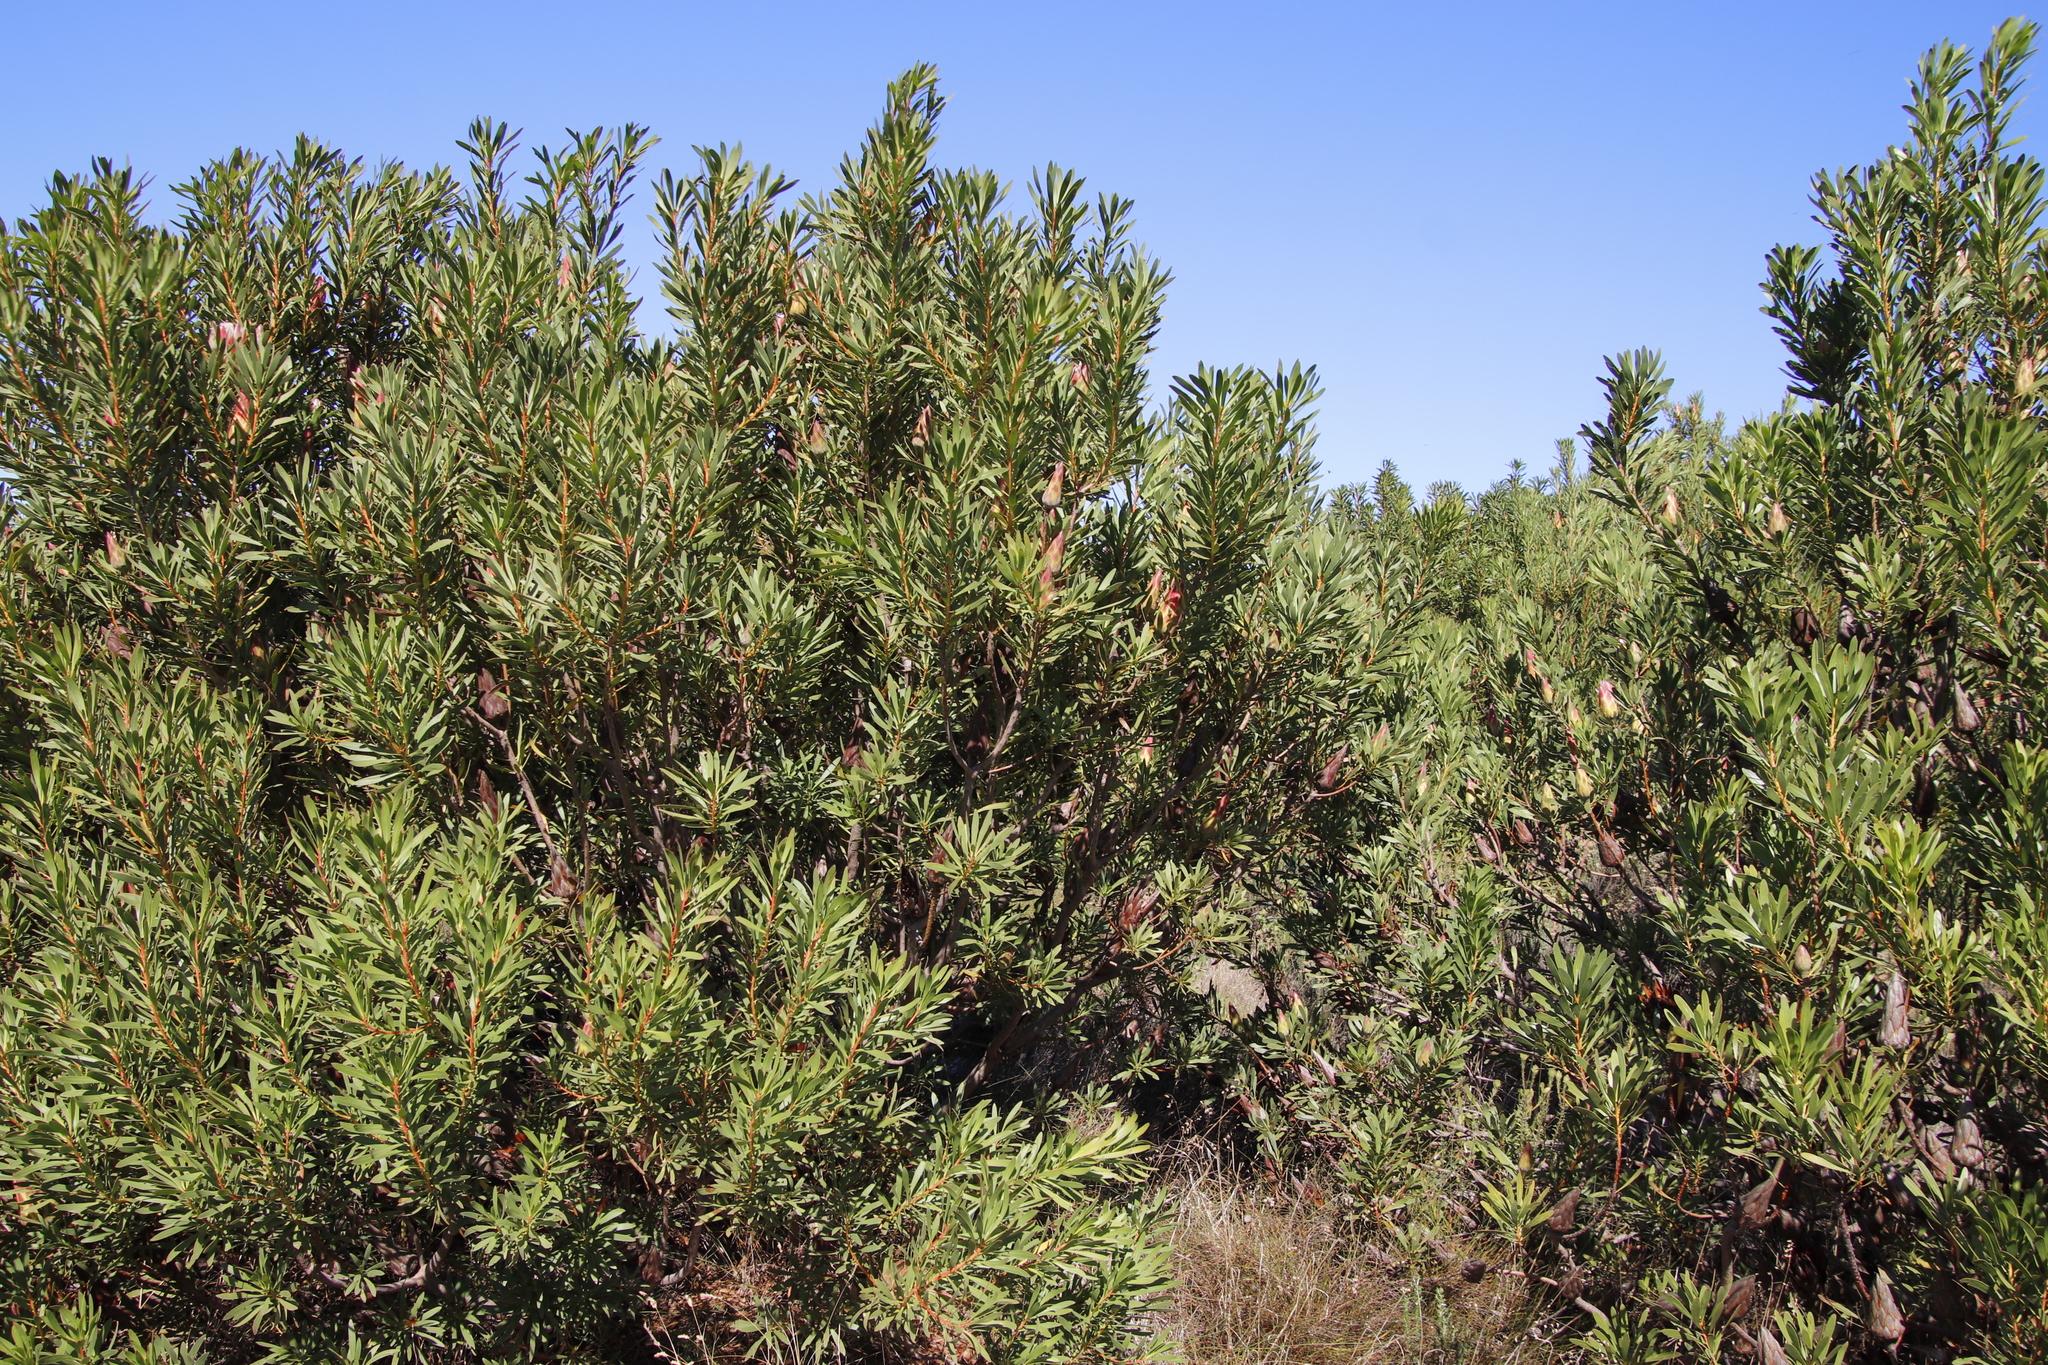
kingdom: Plantae
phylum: Tracheophyta
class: Magnoliopsida
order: Proteales
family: Proteaceae
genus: Protea
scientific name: Protea repens
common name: Sugarbush
